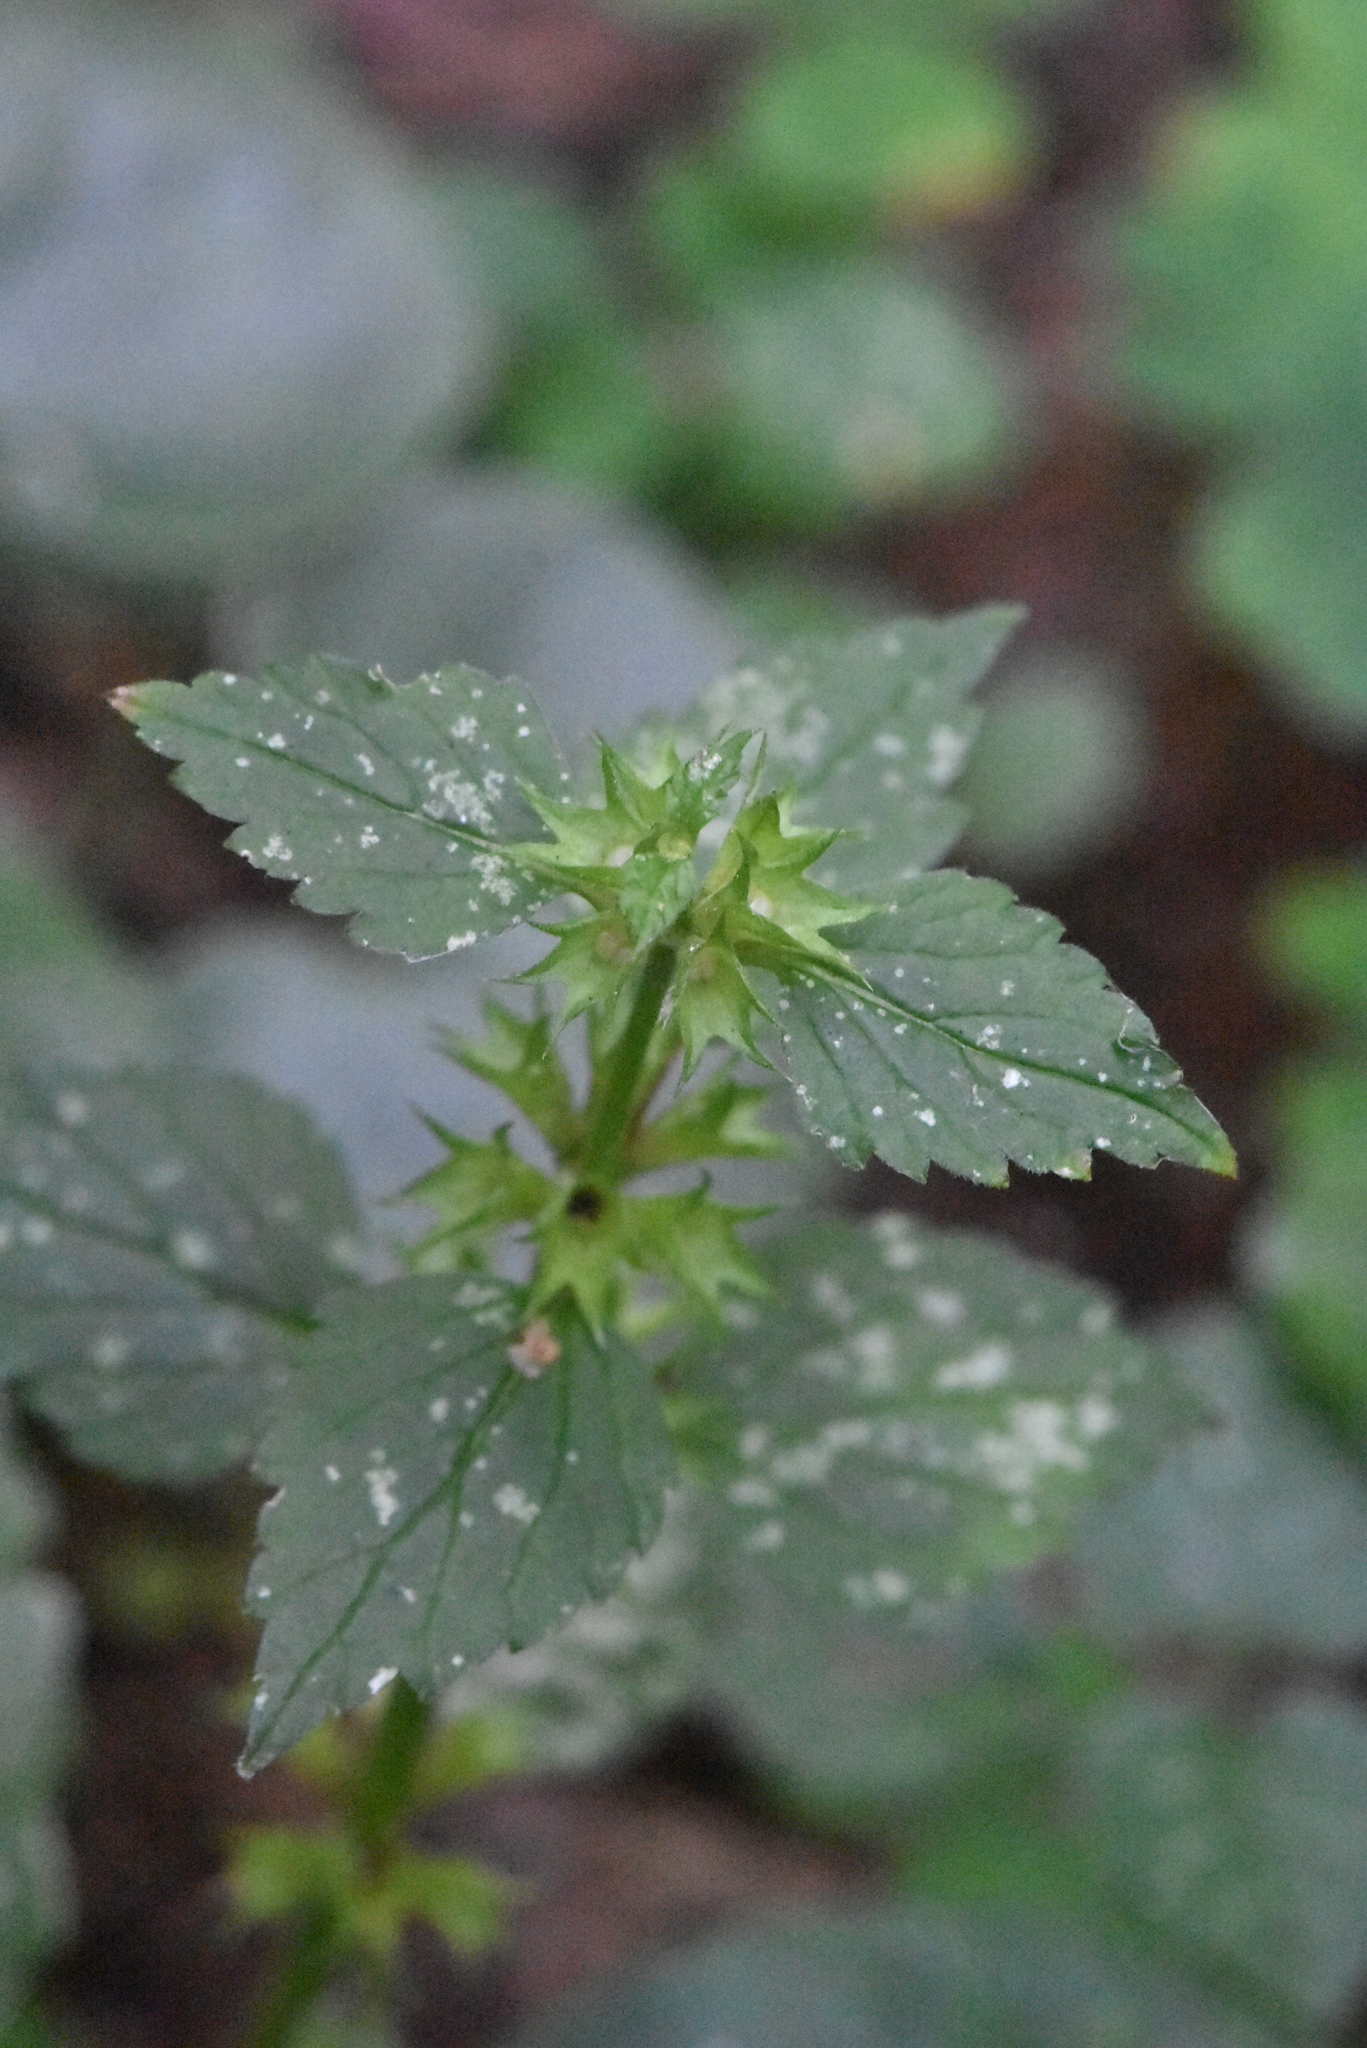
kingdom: Plantae
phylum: Tracheophyta
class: Magnoliopsida
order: Lamiales
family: Lamiaceae
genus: Lamium
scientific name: Lamium galeobdolon
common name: Yellow archangel
